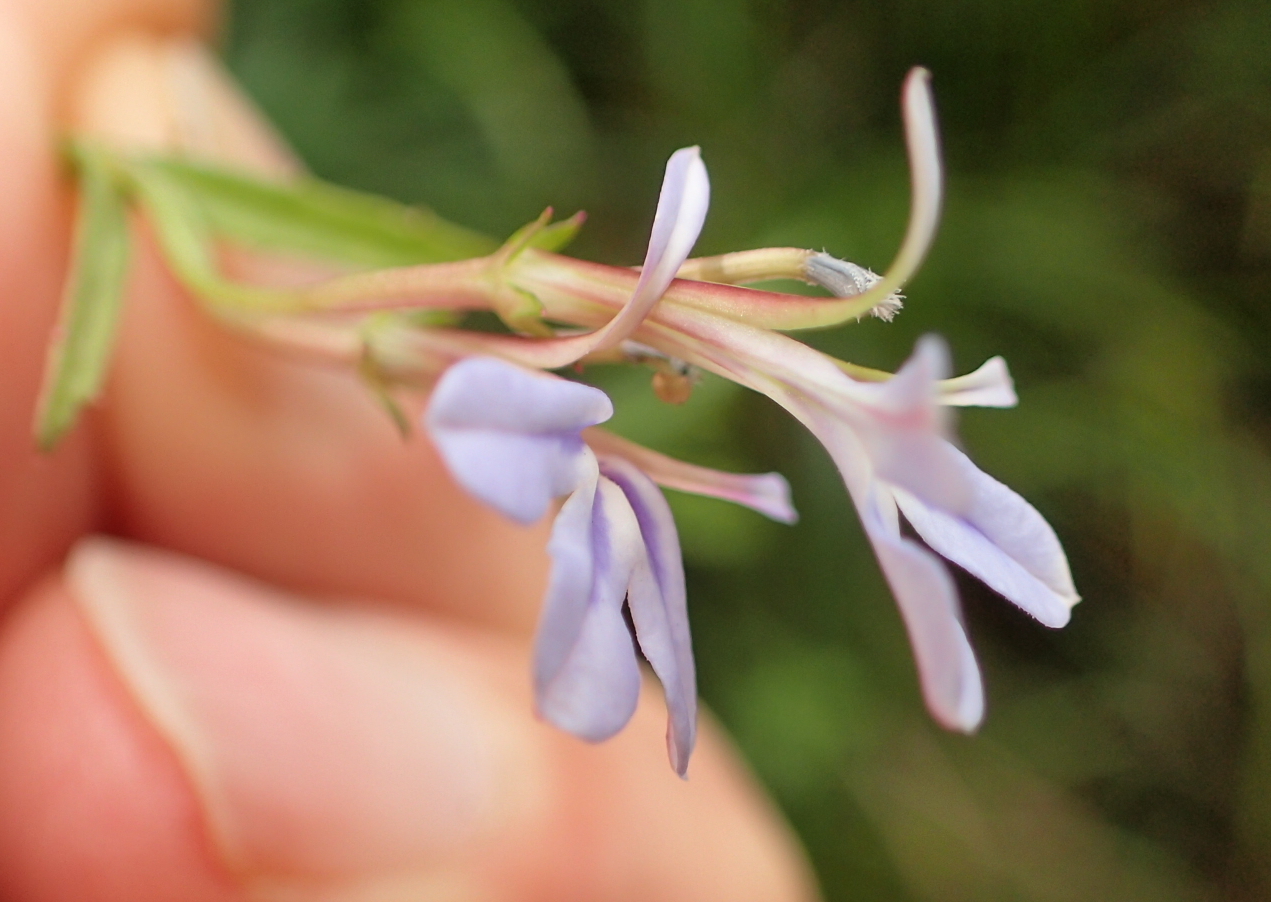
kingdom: Plantae
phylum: Tracheophyta
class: Magnoliopsida
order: Asterales
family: Campanulaceae
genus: Lobelia
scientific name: Lobelia anceps
